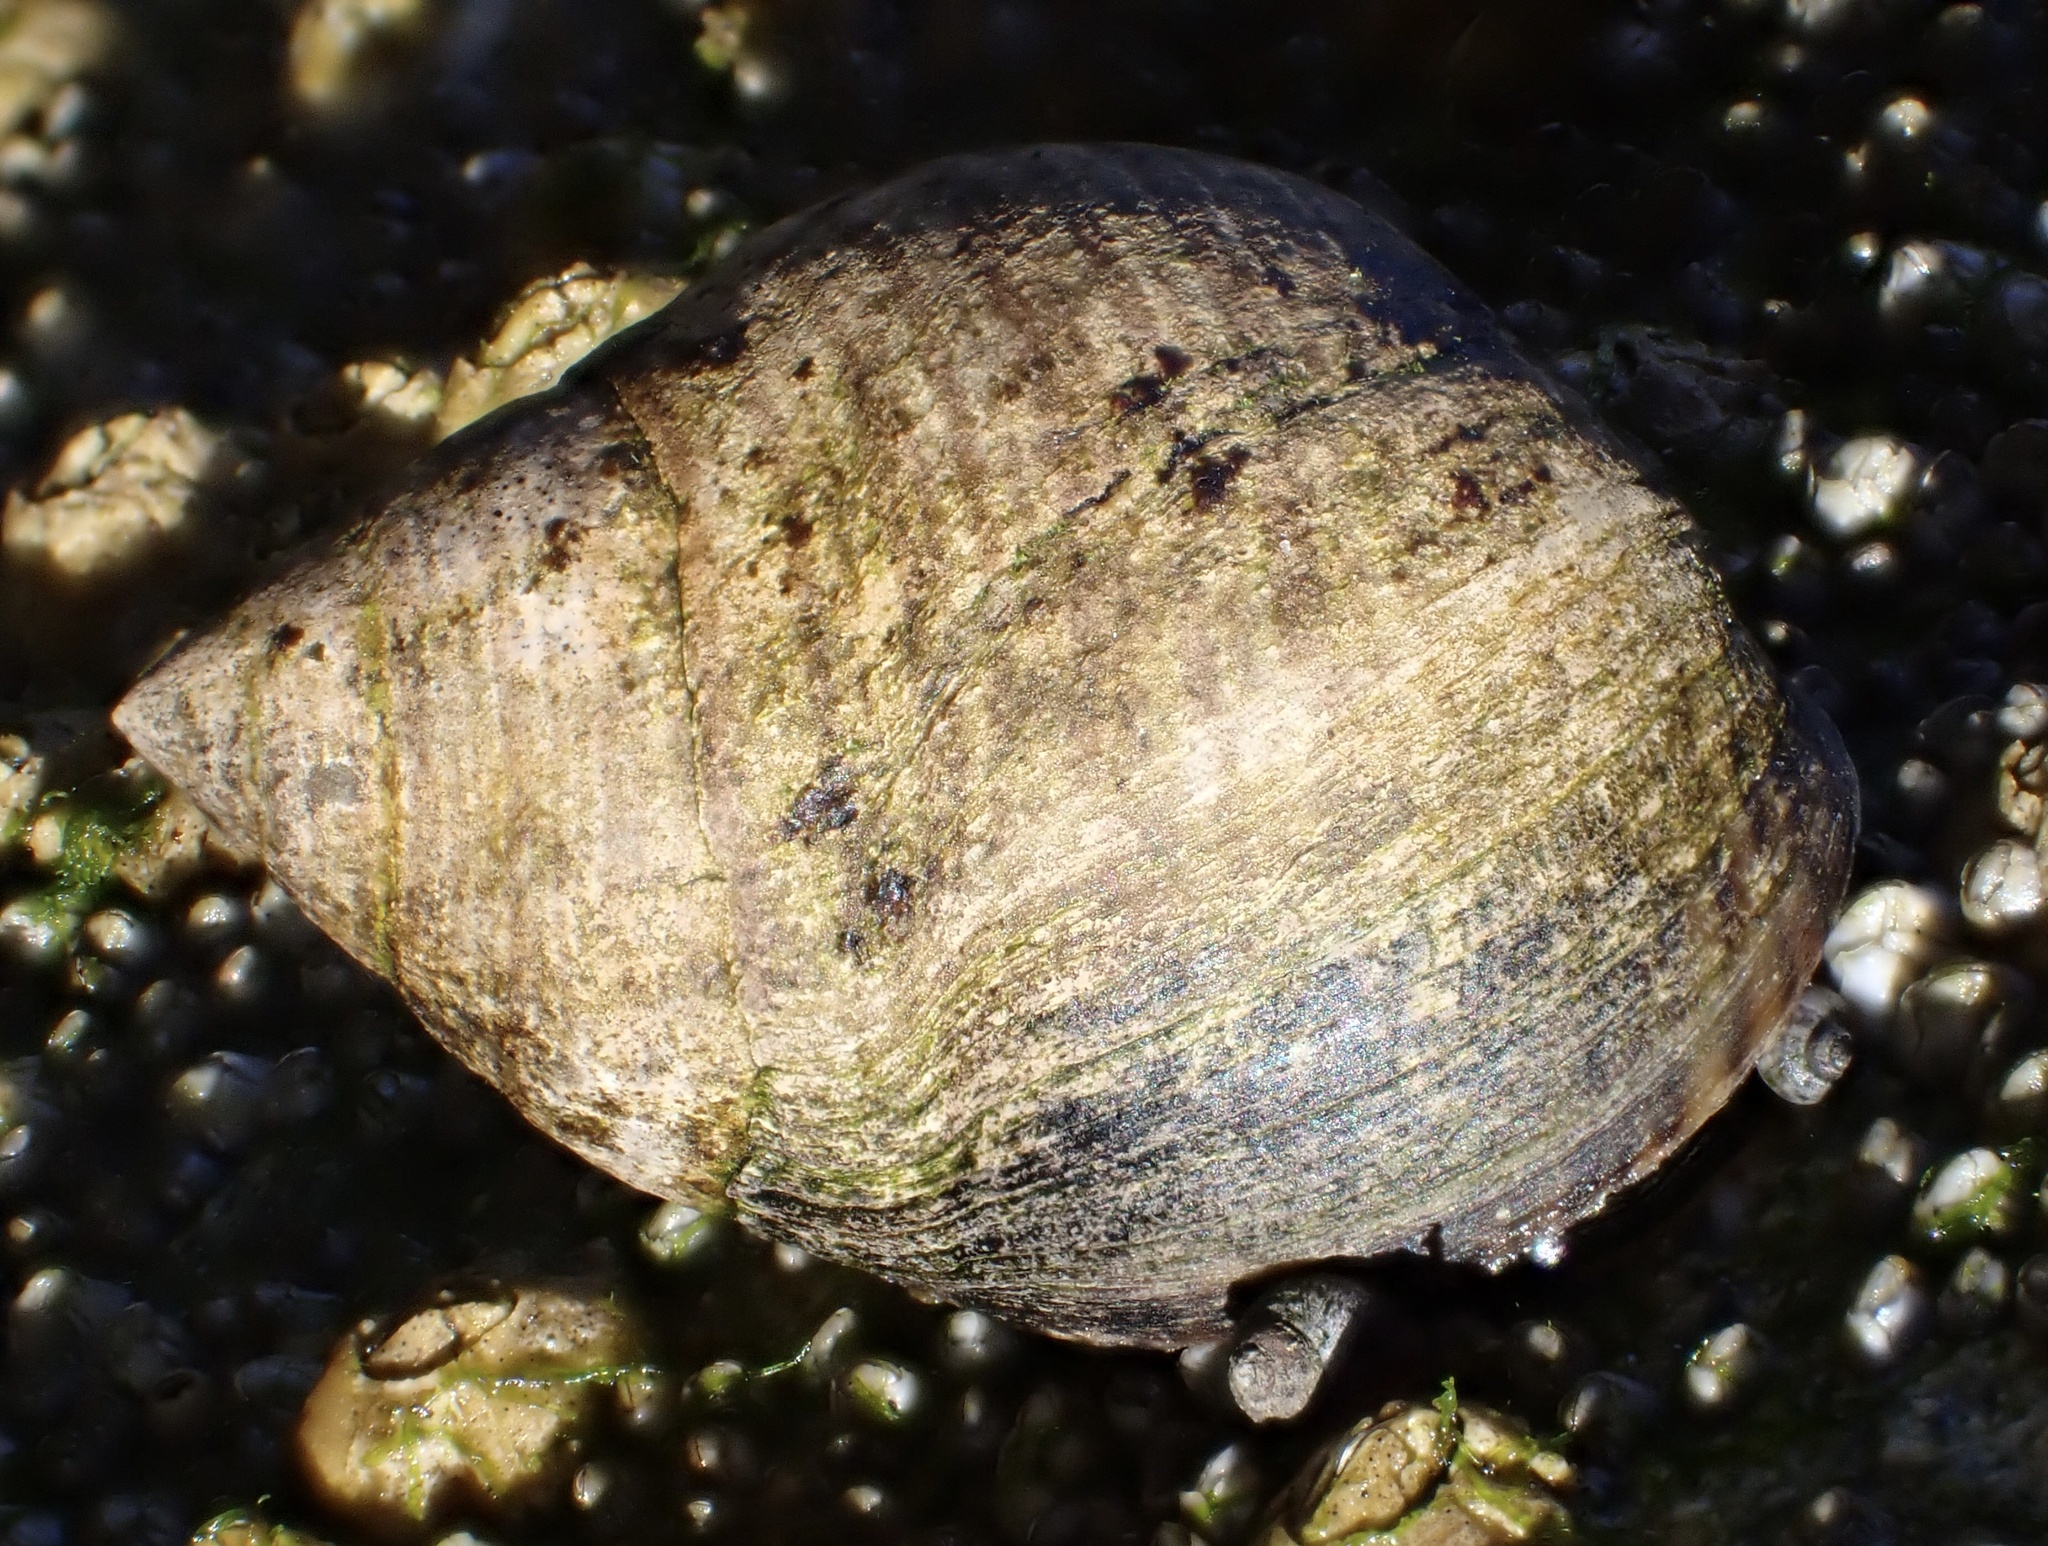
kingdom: Animalia
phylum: Mollusca
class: Gastropoda
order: Littorinimorpha
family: Littorinidae
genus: Littorina
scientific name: Littorina littorea
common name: Common periwinkle
